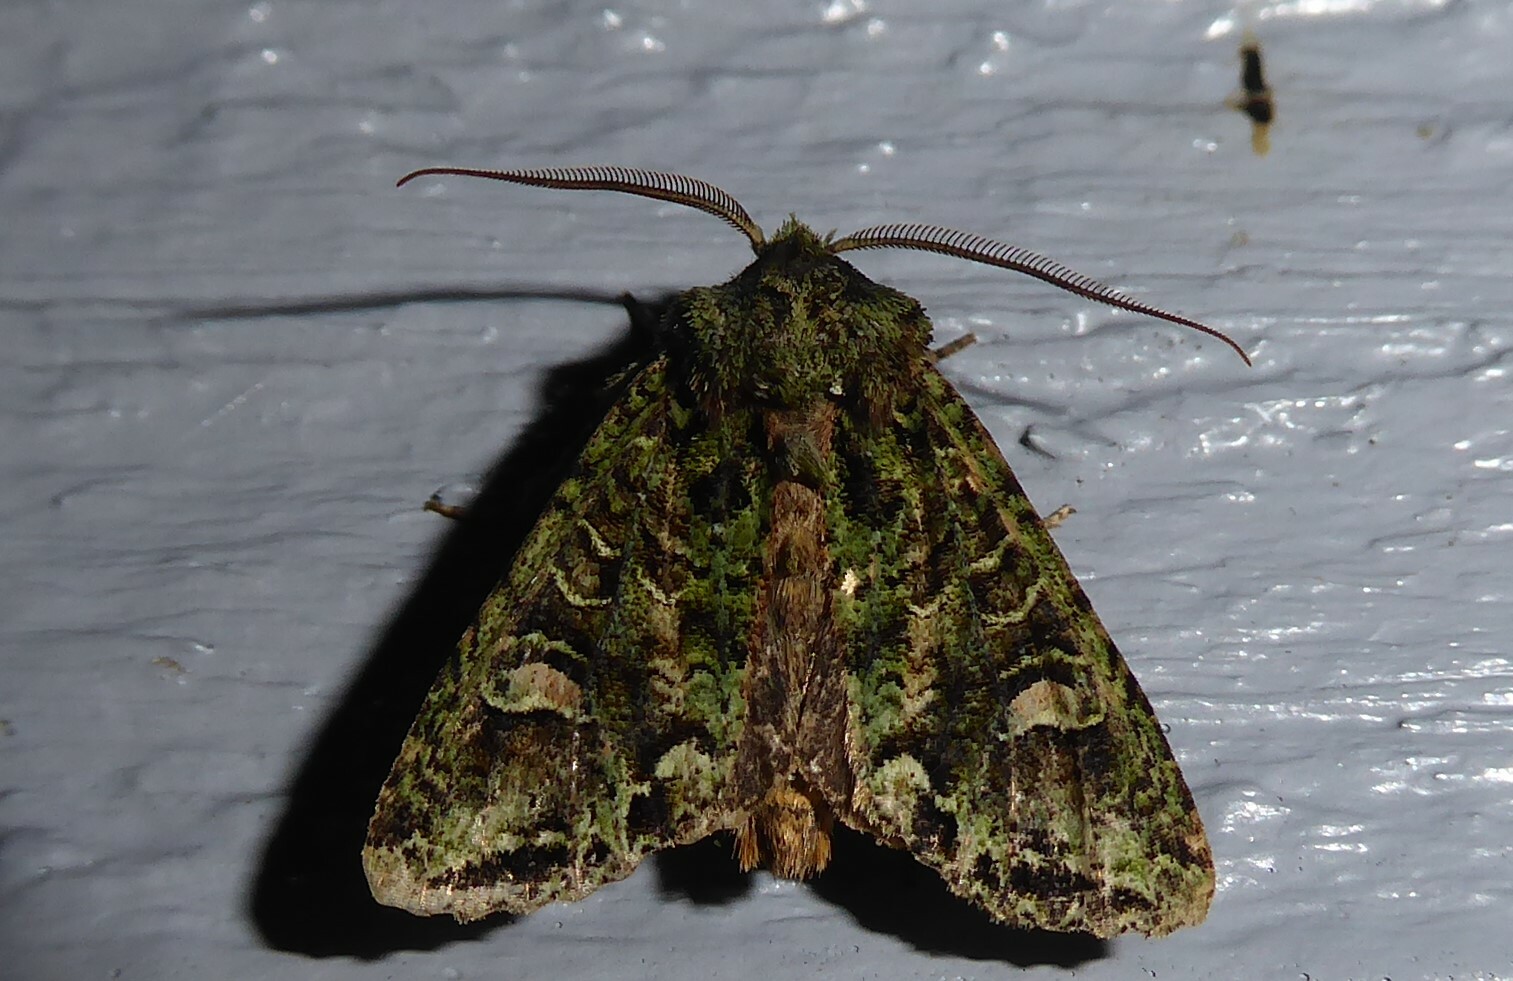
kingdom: Animalia
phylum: Arthropoda
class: Insecta
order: Lepidoptera
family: Noctuidae
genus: Ichneutica
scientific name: Ichneutica
